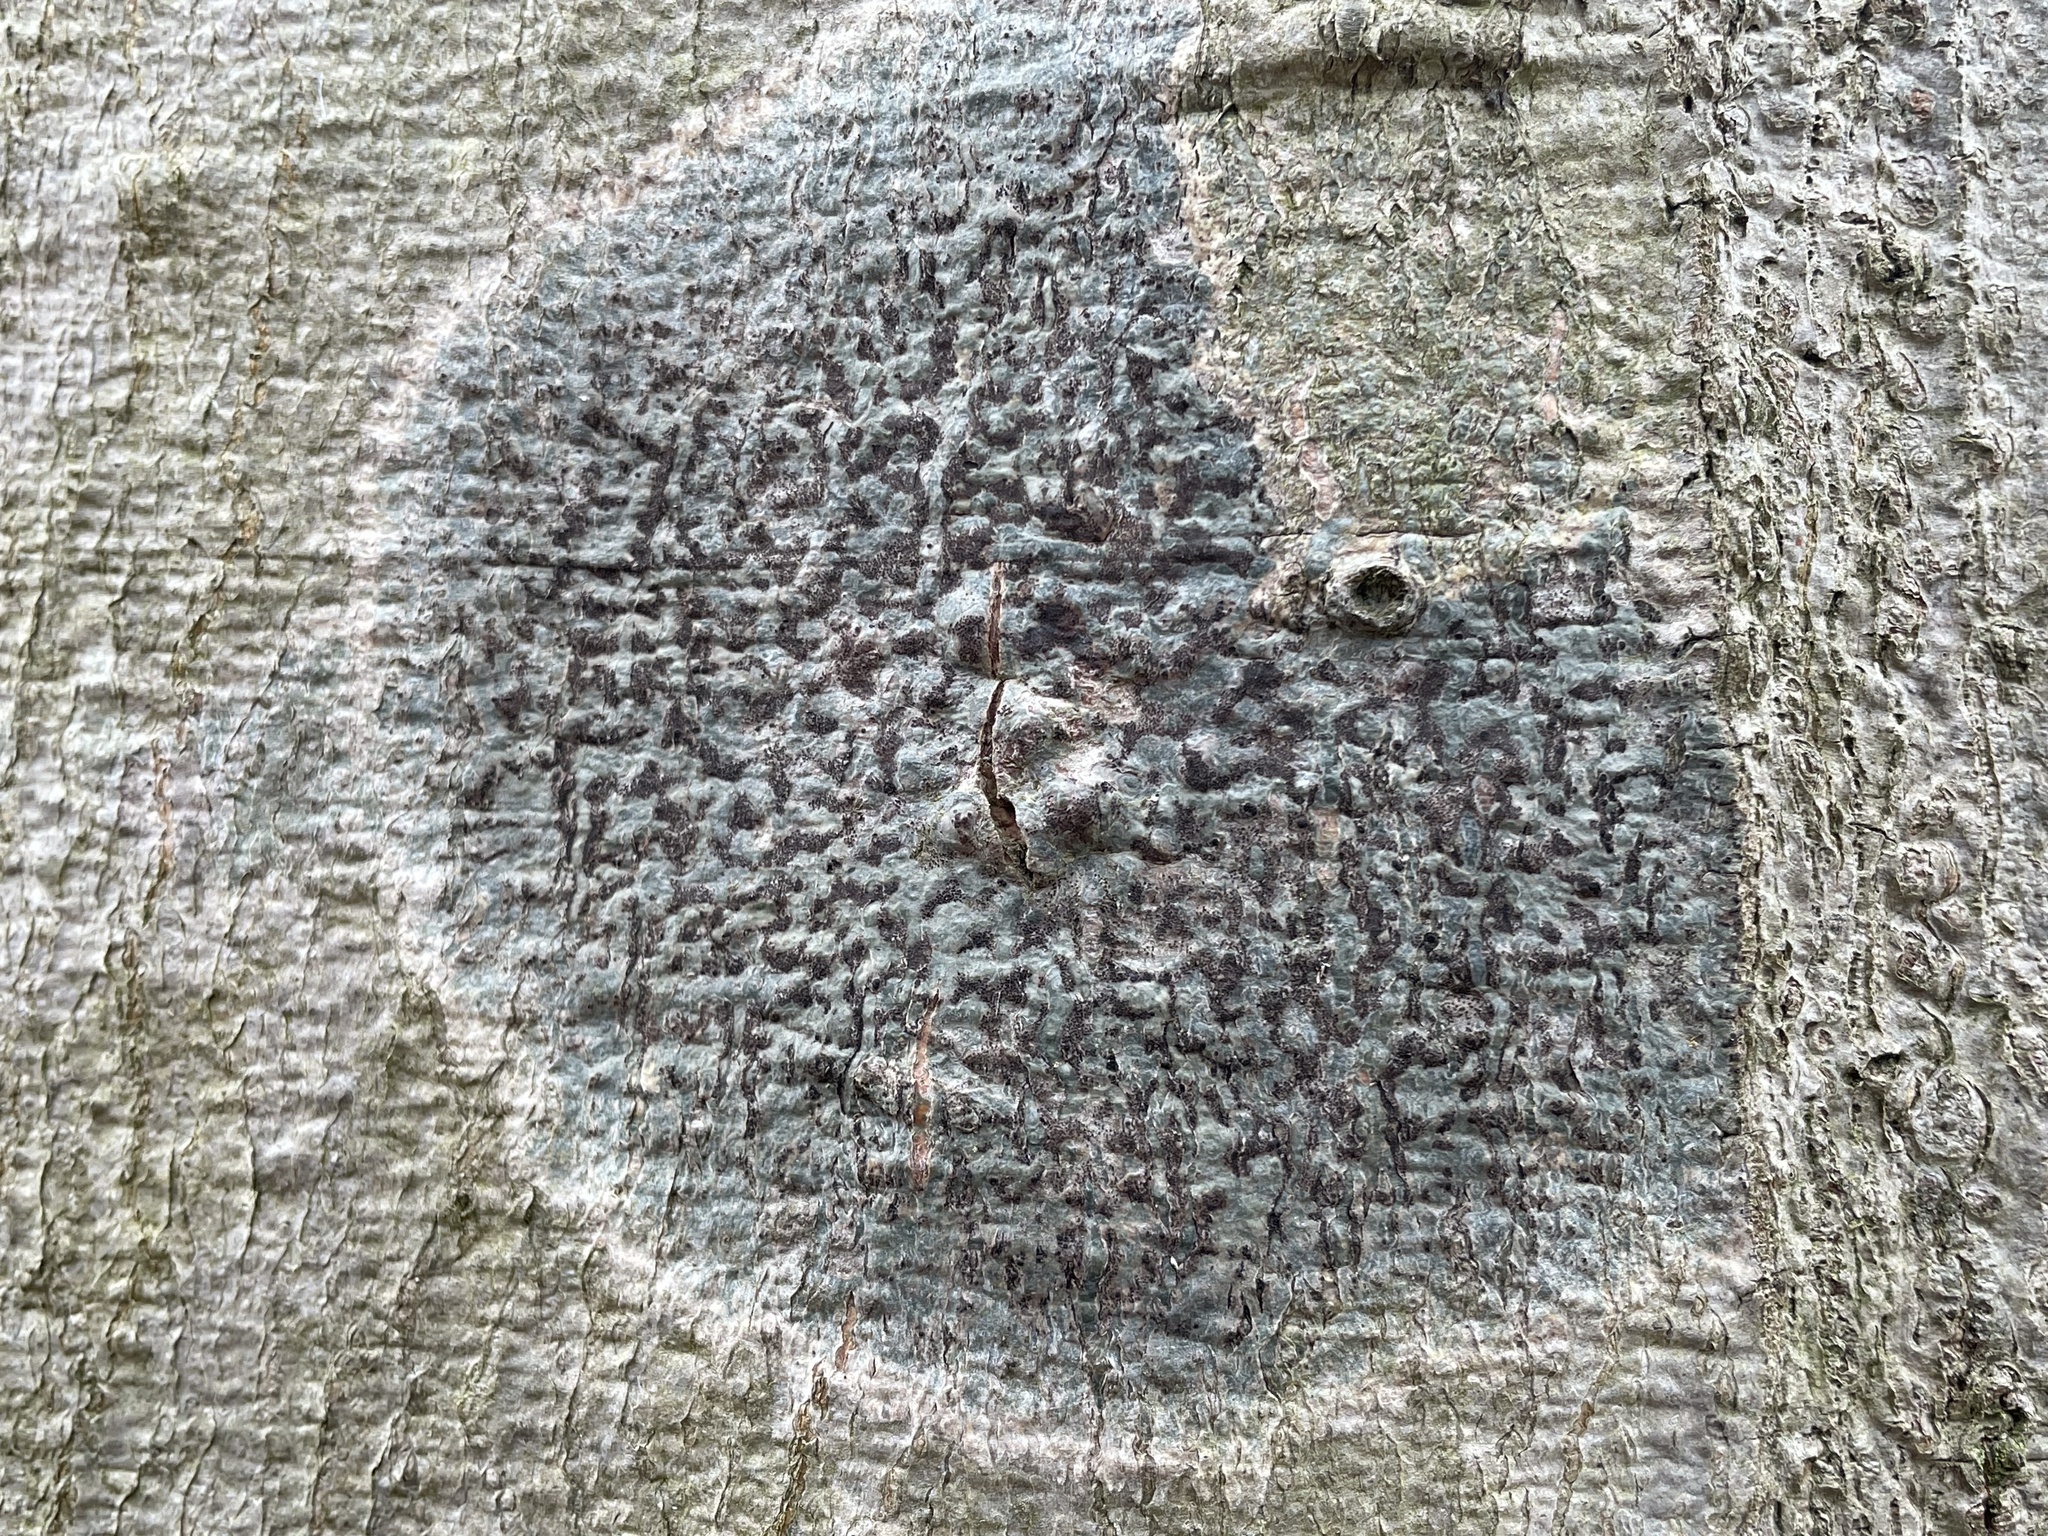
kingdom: Fungi
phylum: Ascomycota
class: Dothideomycetes
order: Trypetheliales
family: Trypetheliaceae
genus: Viridothelium
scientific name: Viridothelium virens
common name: Speckled blister lichen
